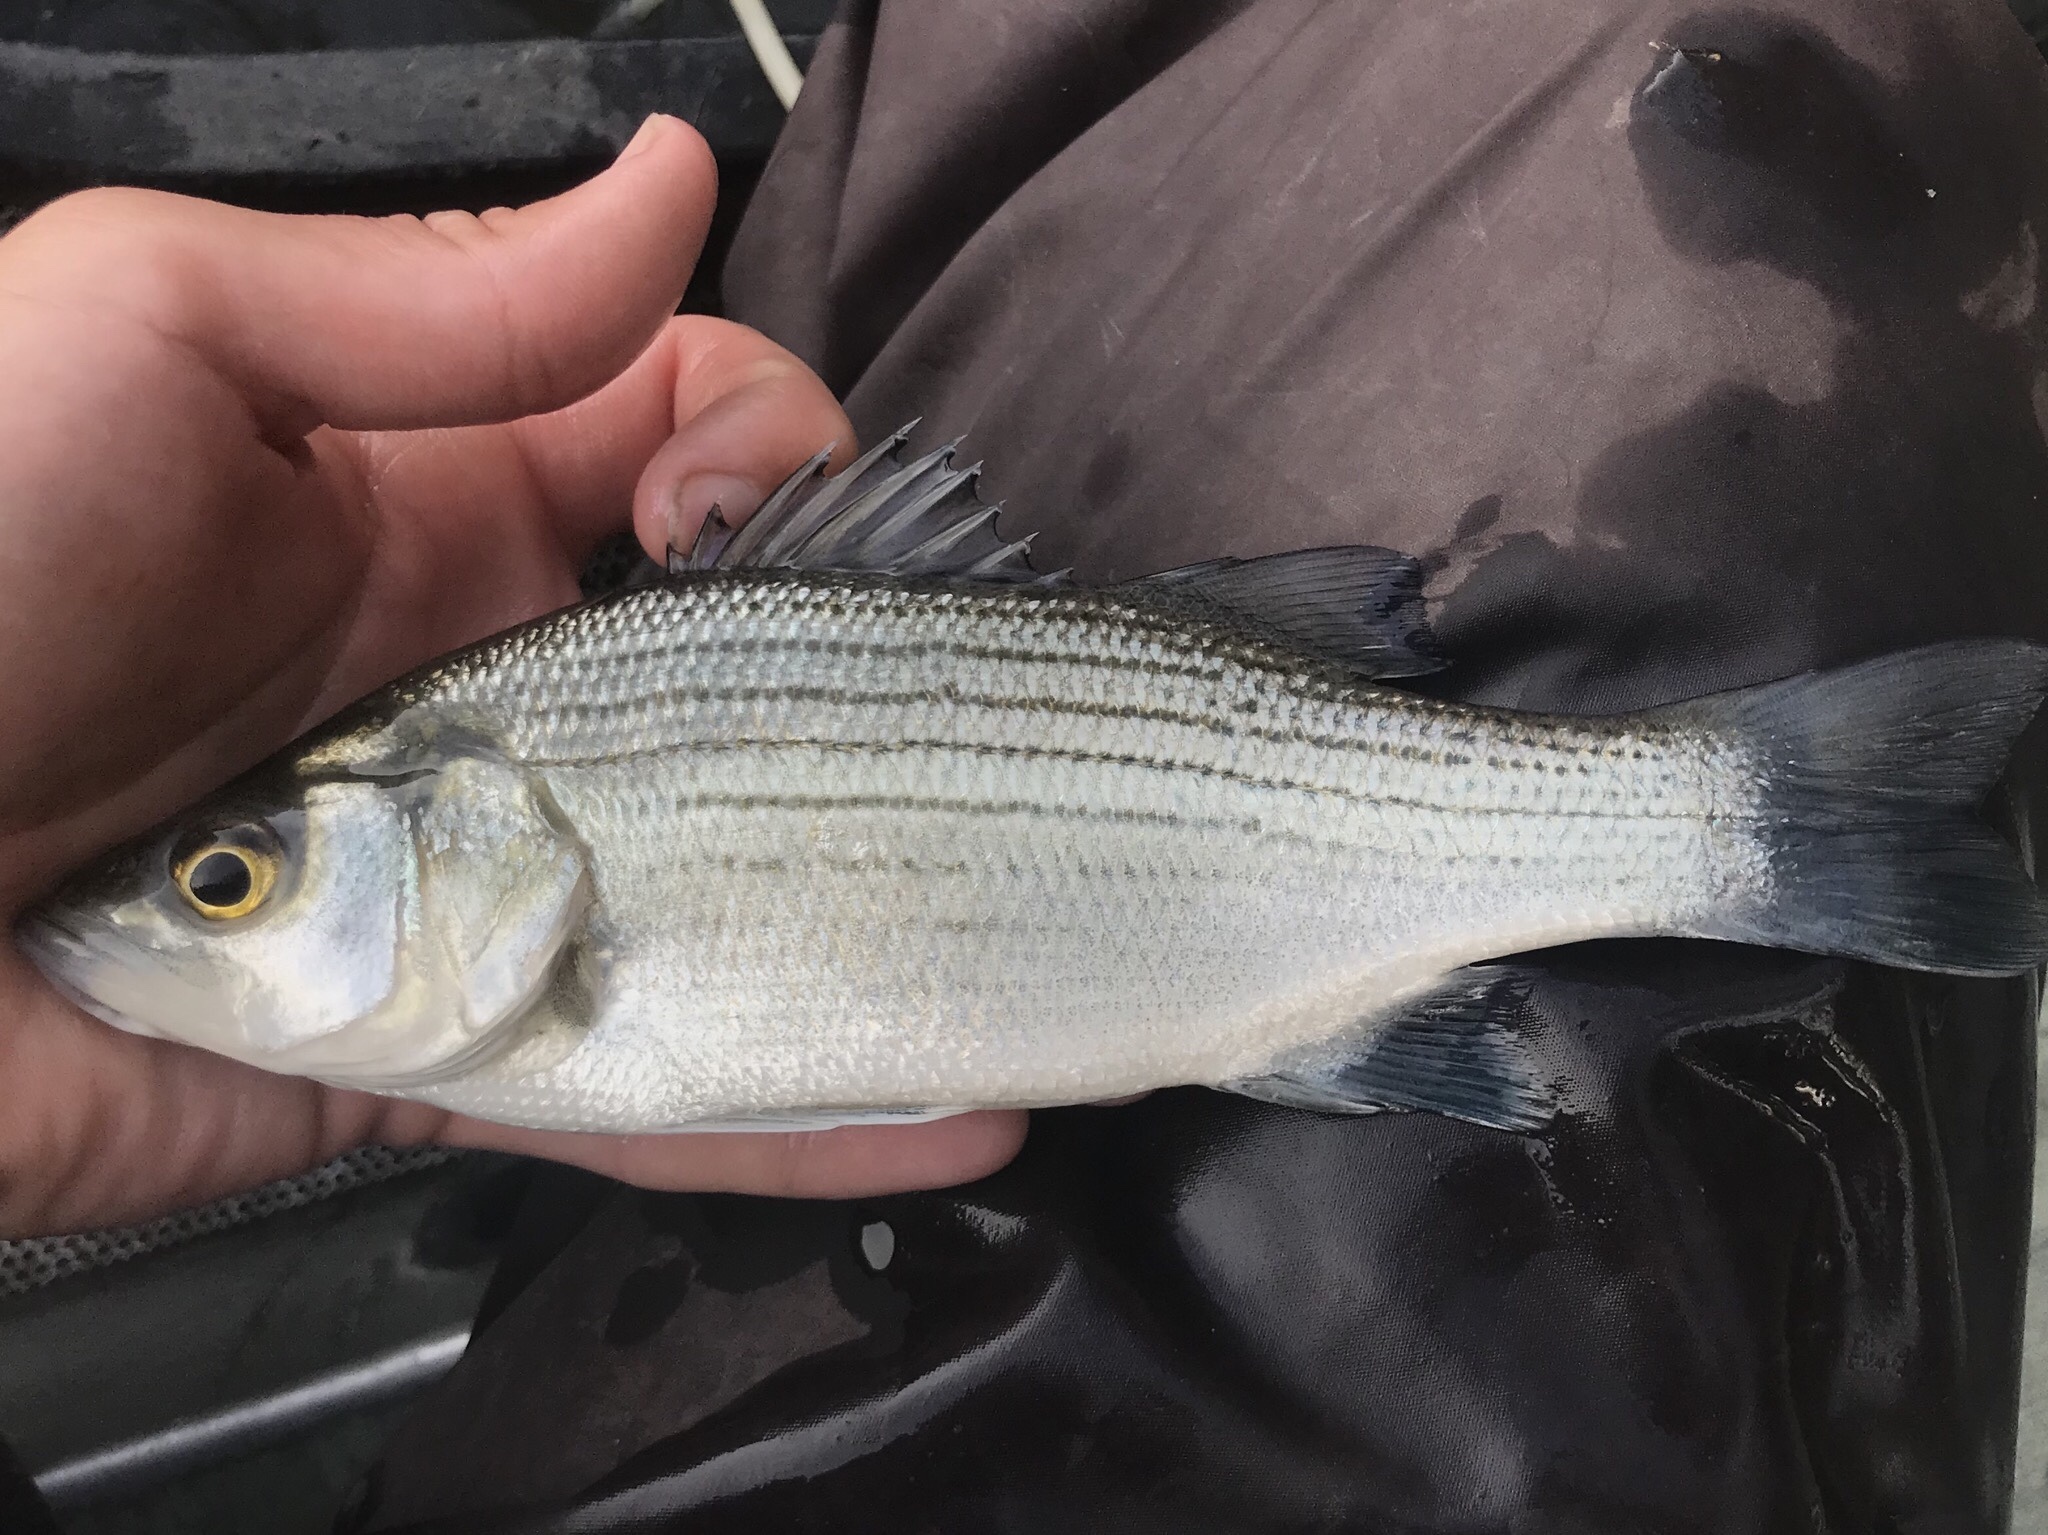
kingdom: Animalia
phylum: Chordata
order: Perciformes
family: Moronidae
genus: Morone
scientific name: Morone chrysops
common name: White bass
